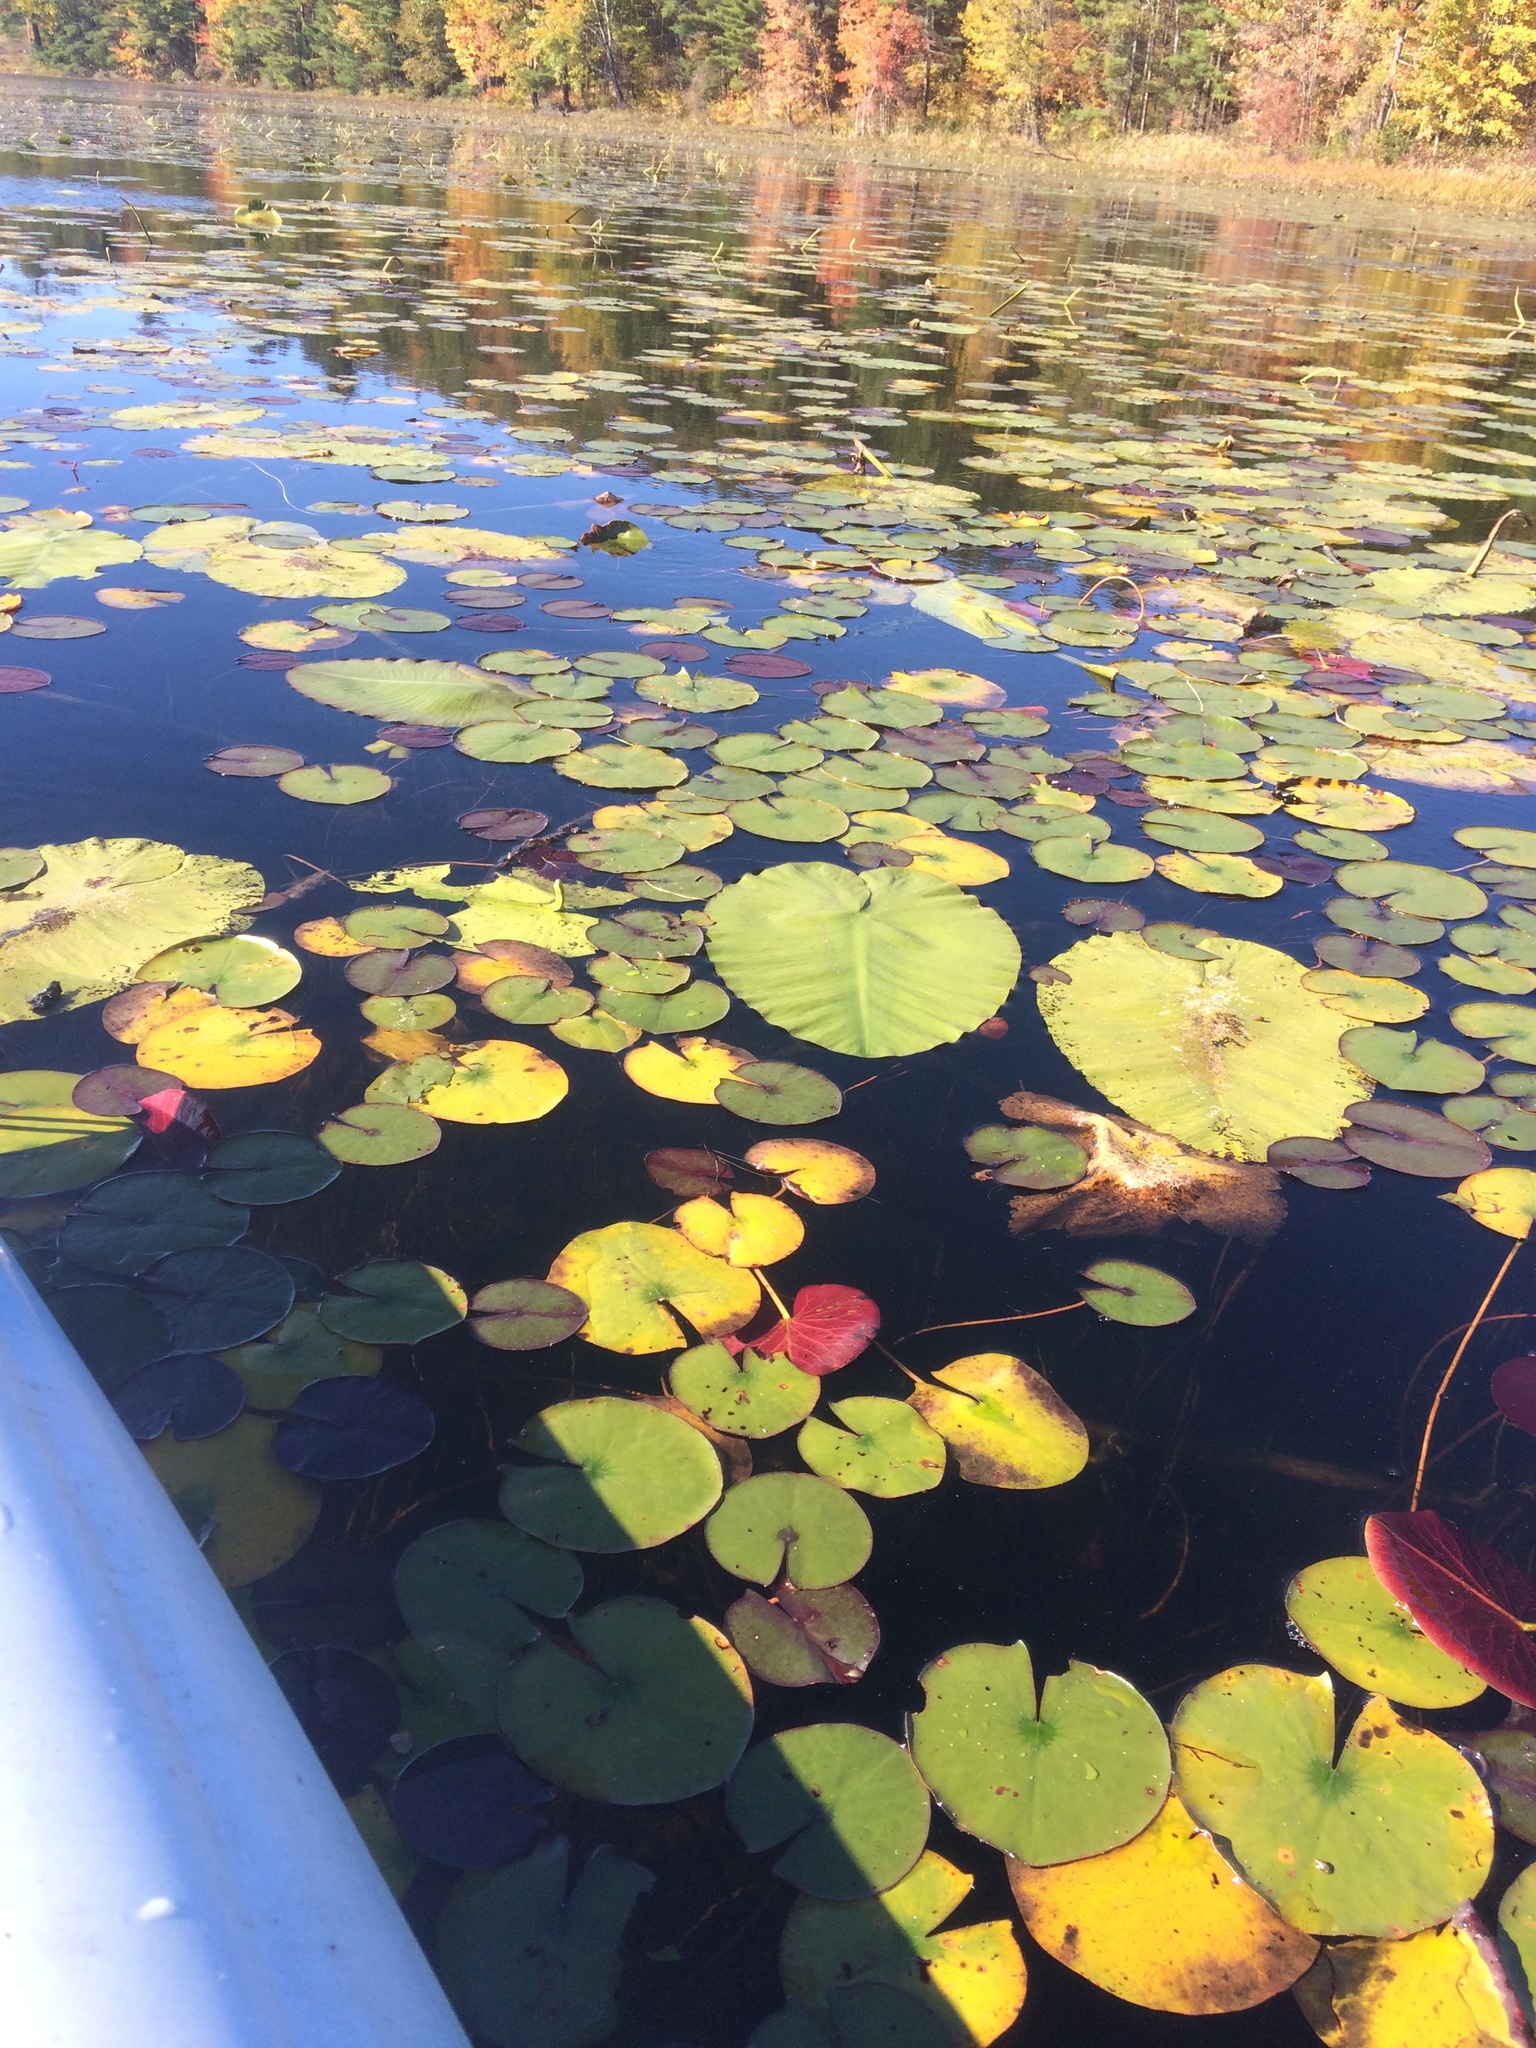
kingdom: Plantae
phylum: Tracheophyta
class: Magnoliopsida
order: Nymphaeales
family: Nymphaeaceae
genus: Nuphar
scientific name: Nuphar variegata
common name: Beaver-root
